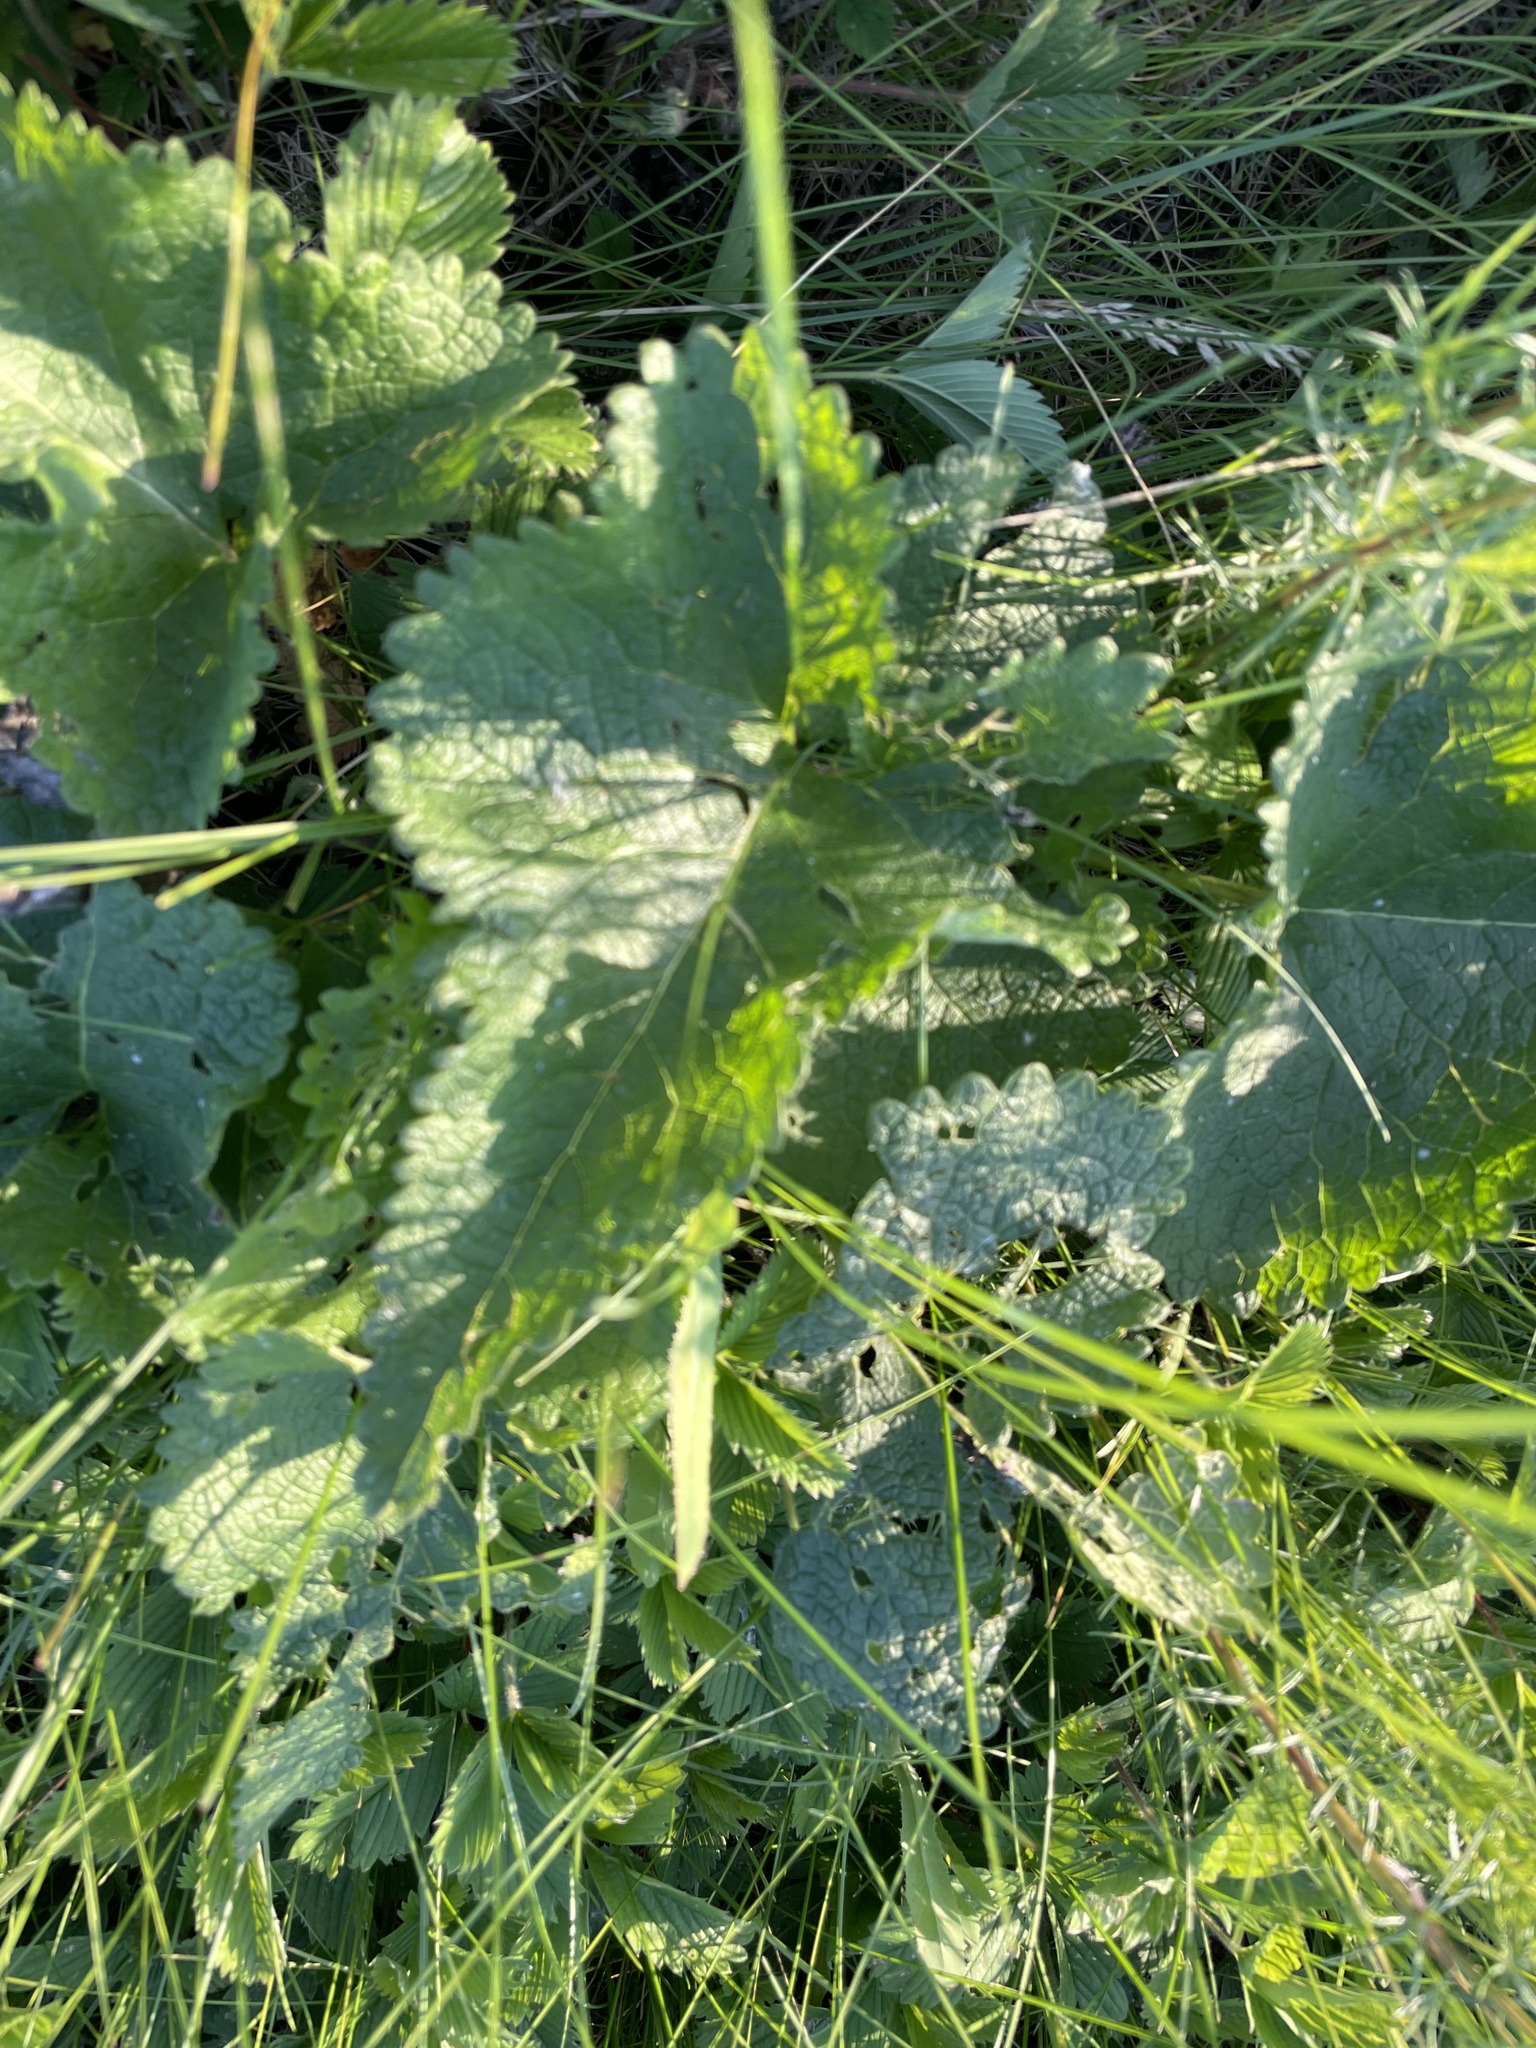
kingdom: Plantae
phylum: Tracheophyta
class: Magnoliopsida
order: Lamiales
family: Lamiaceae
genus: Phlomoides
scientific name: Phlomoides tuberosa
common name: Tuberous jerusalem sage
